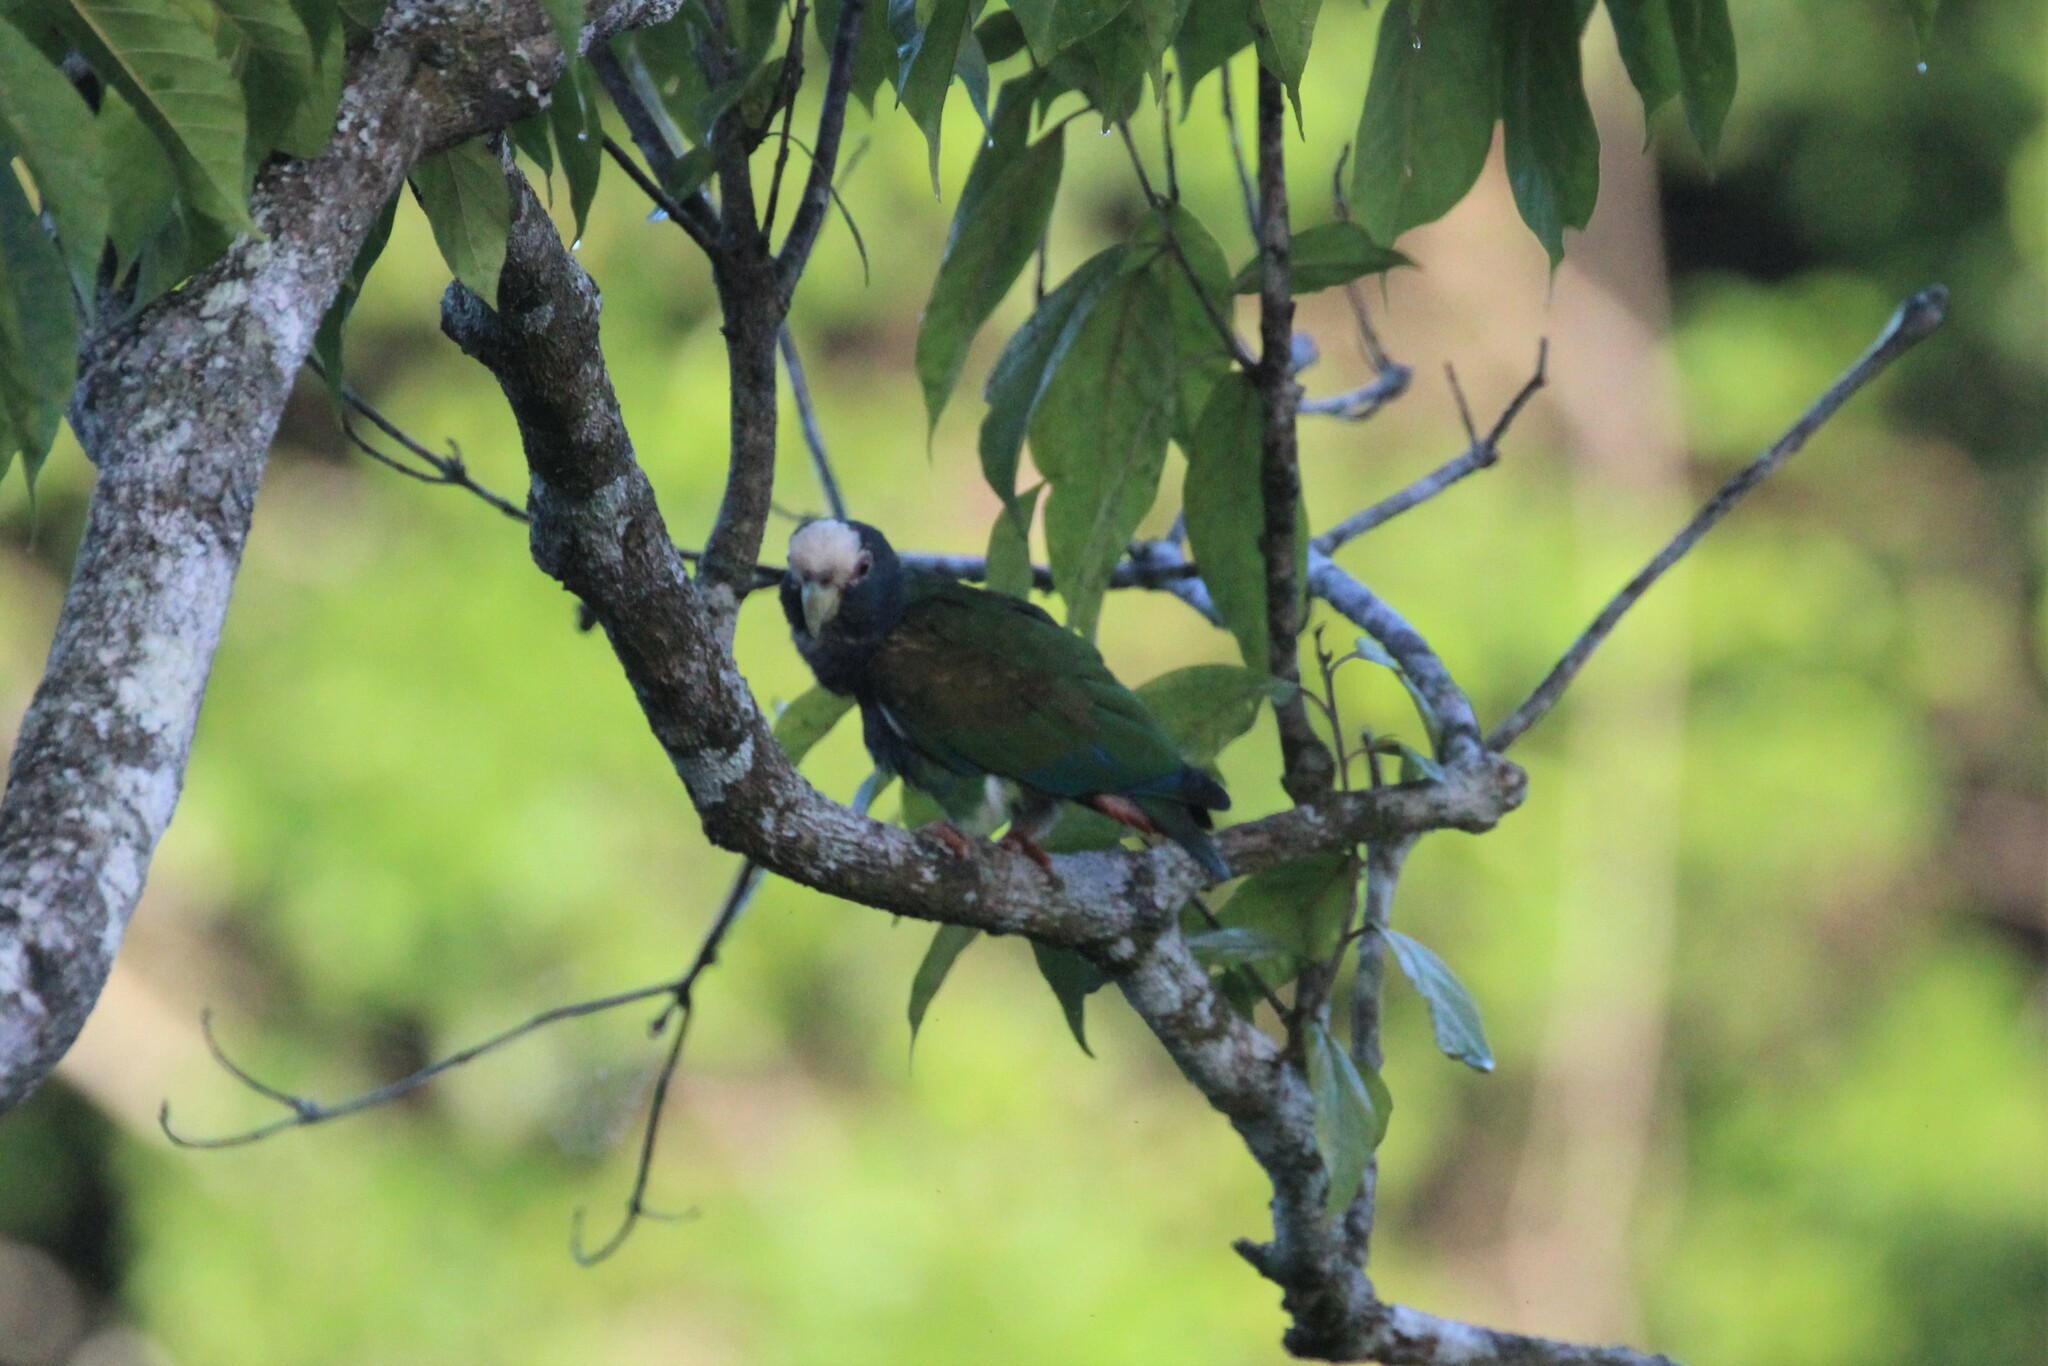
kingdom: Animalia
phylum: Chordata
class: Aves
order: Psittaciformes
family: Psittacidae
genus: Pionus
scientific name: Pionus senilis
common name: White-crowned parrot
